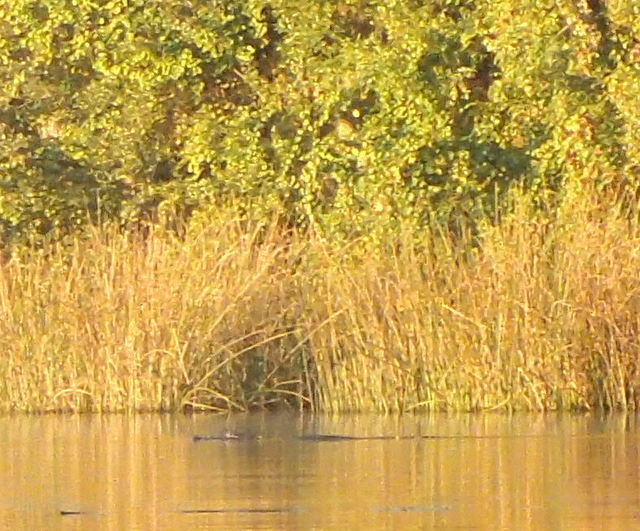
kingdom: Animalia
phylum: Chordata
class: Crocodylia
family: Alligatoridae
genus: Alligator
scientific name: Alligator mississippiensis
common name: American alligator
